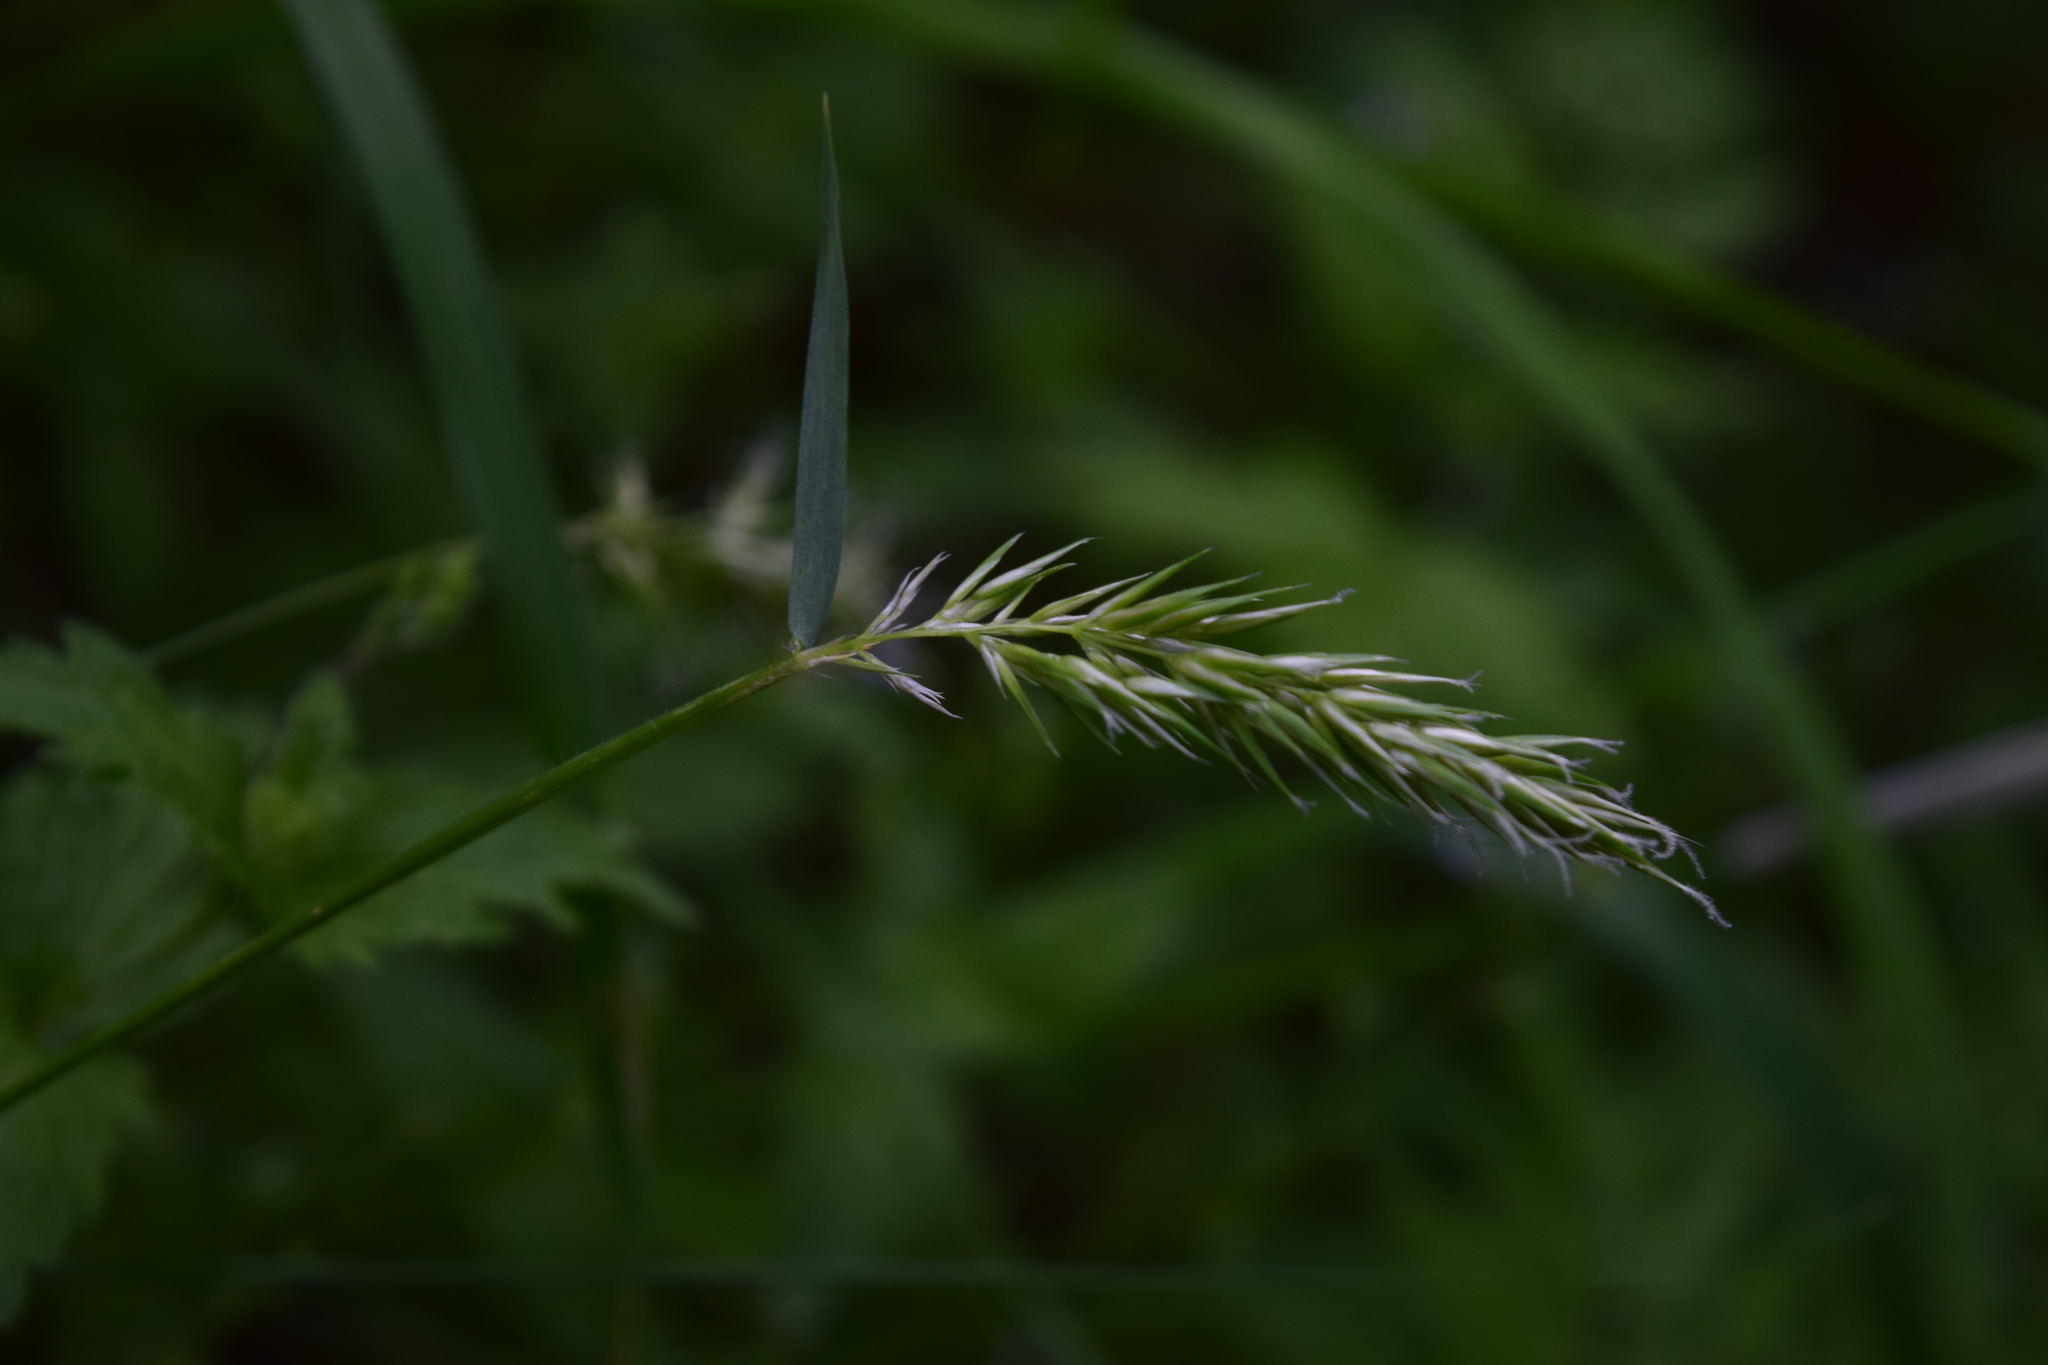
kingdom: Plantae
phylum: Tracheophyta
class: Liliopsida
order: Poales
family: Poaceae
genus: Anthoxanthum
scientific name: Anthoxanthum odoratum
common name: Sweet vernalgrass
